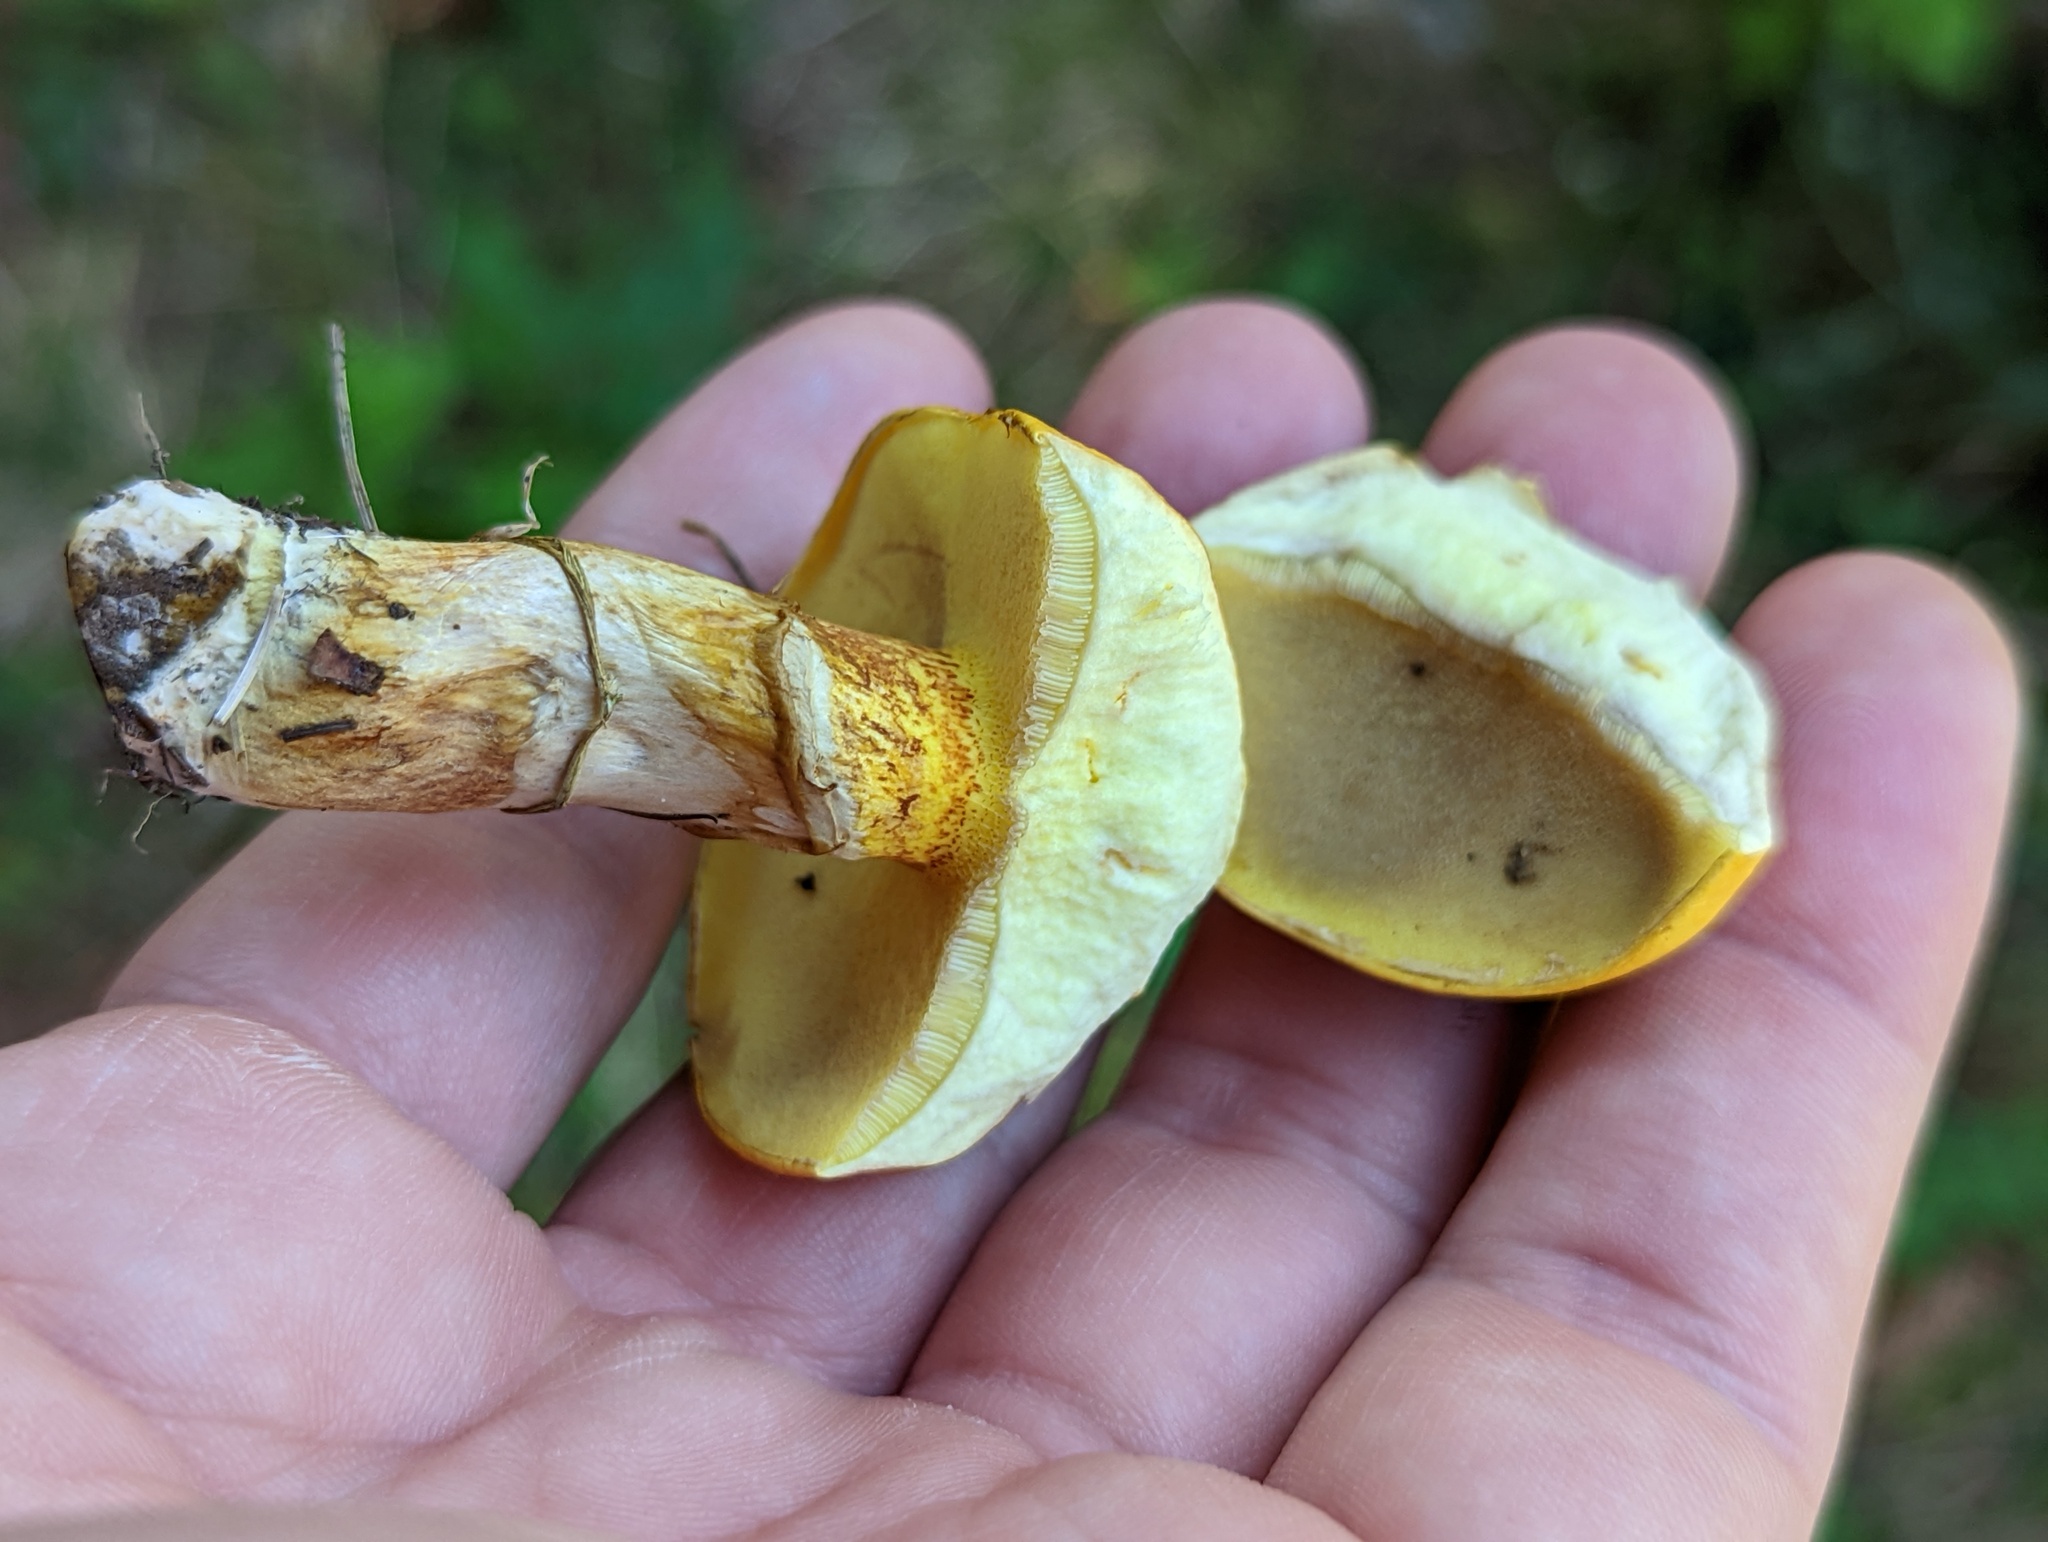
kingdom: Fungi
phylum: Basidiomycota
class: Agaricomycetes
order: Boletales
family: Suillaceae
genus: Suillus
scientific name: Suillus grevillei
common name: Larch bolete
